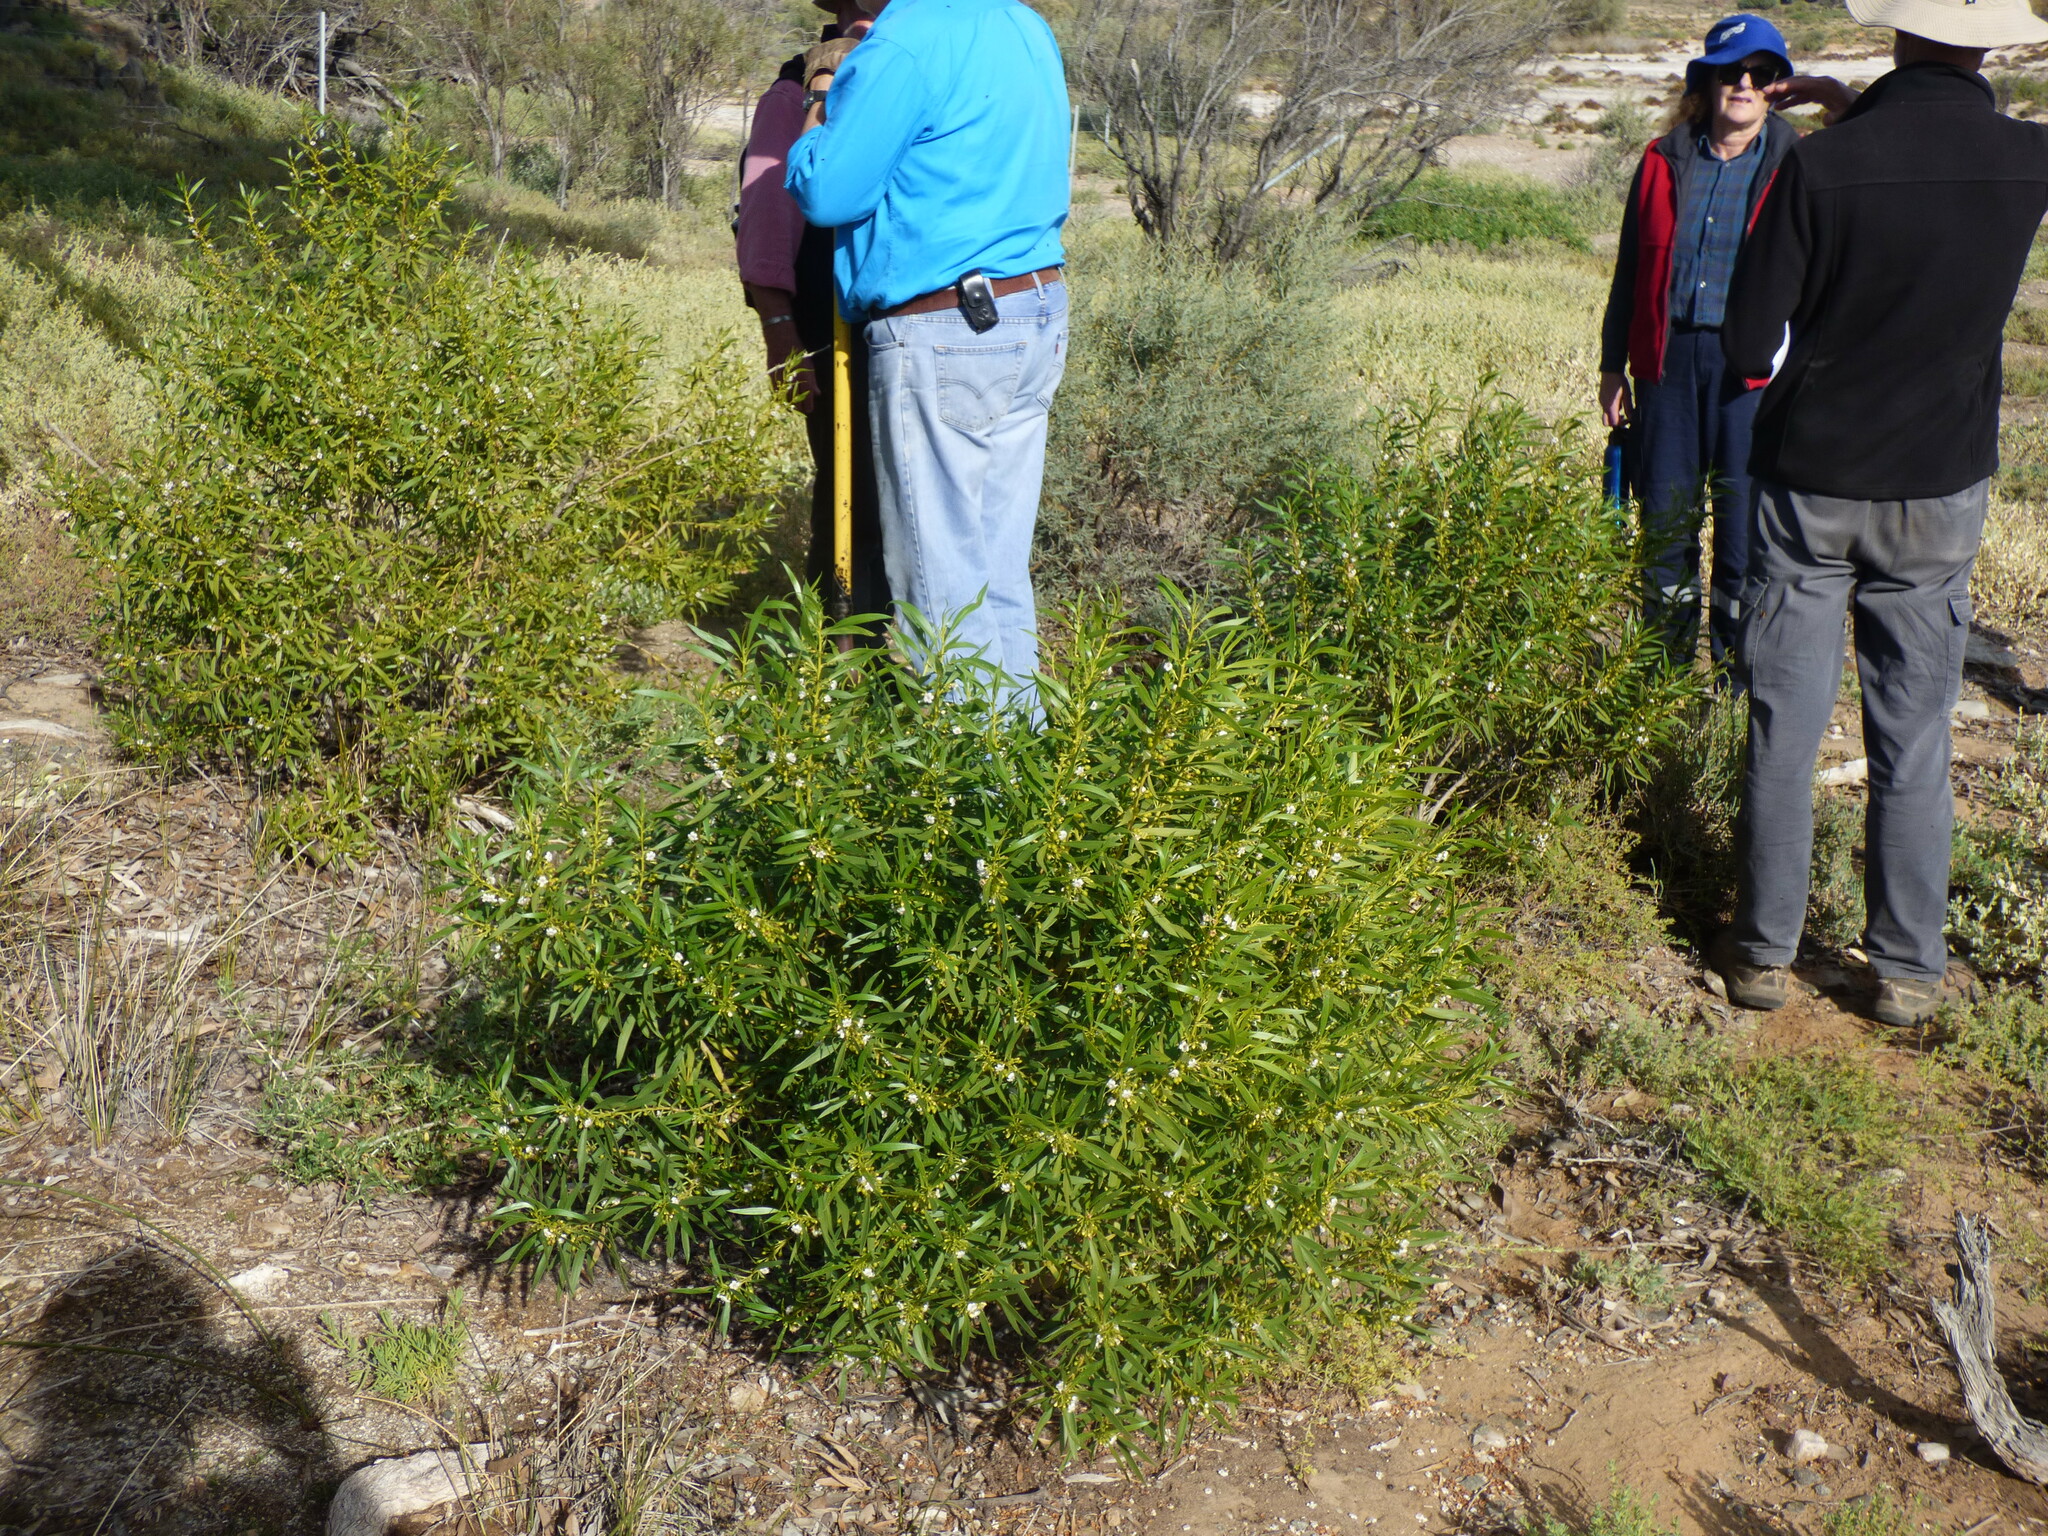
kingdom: Plantae
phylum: Tracheophyta
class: Magnoliopsida
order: Lamiales
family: Scrophulariaceae
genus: Myoporum
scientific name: Myoporum montanum
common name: Waterbush
